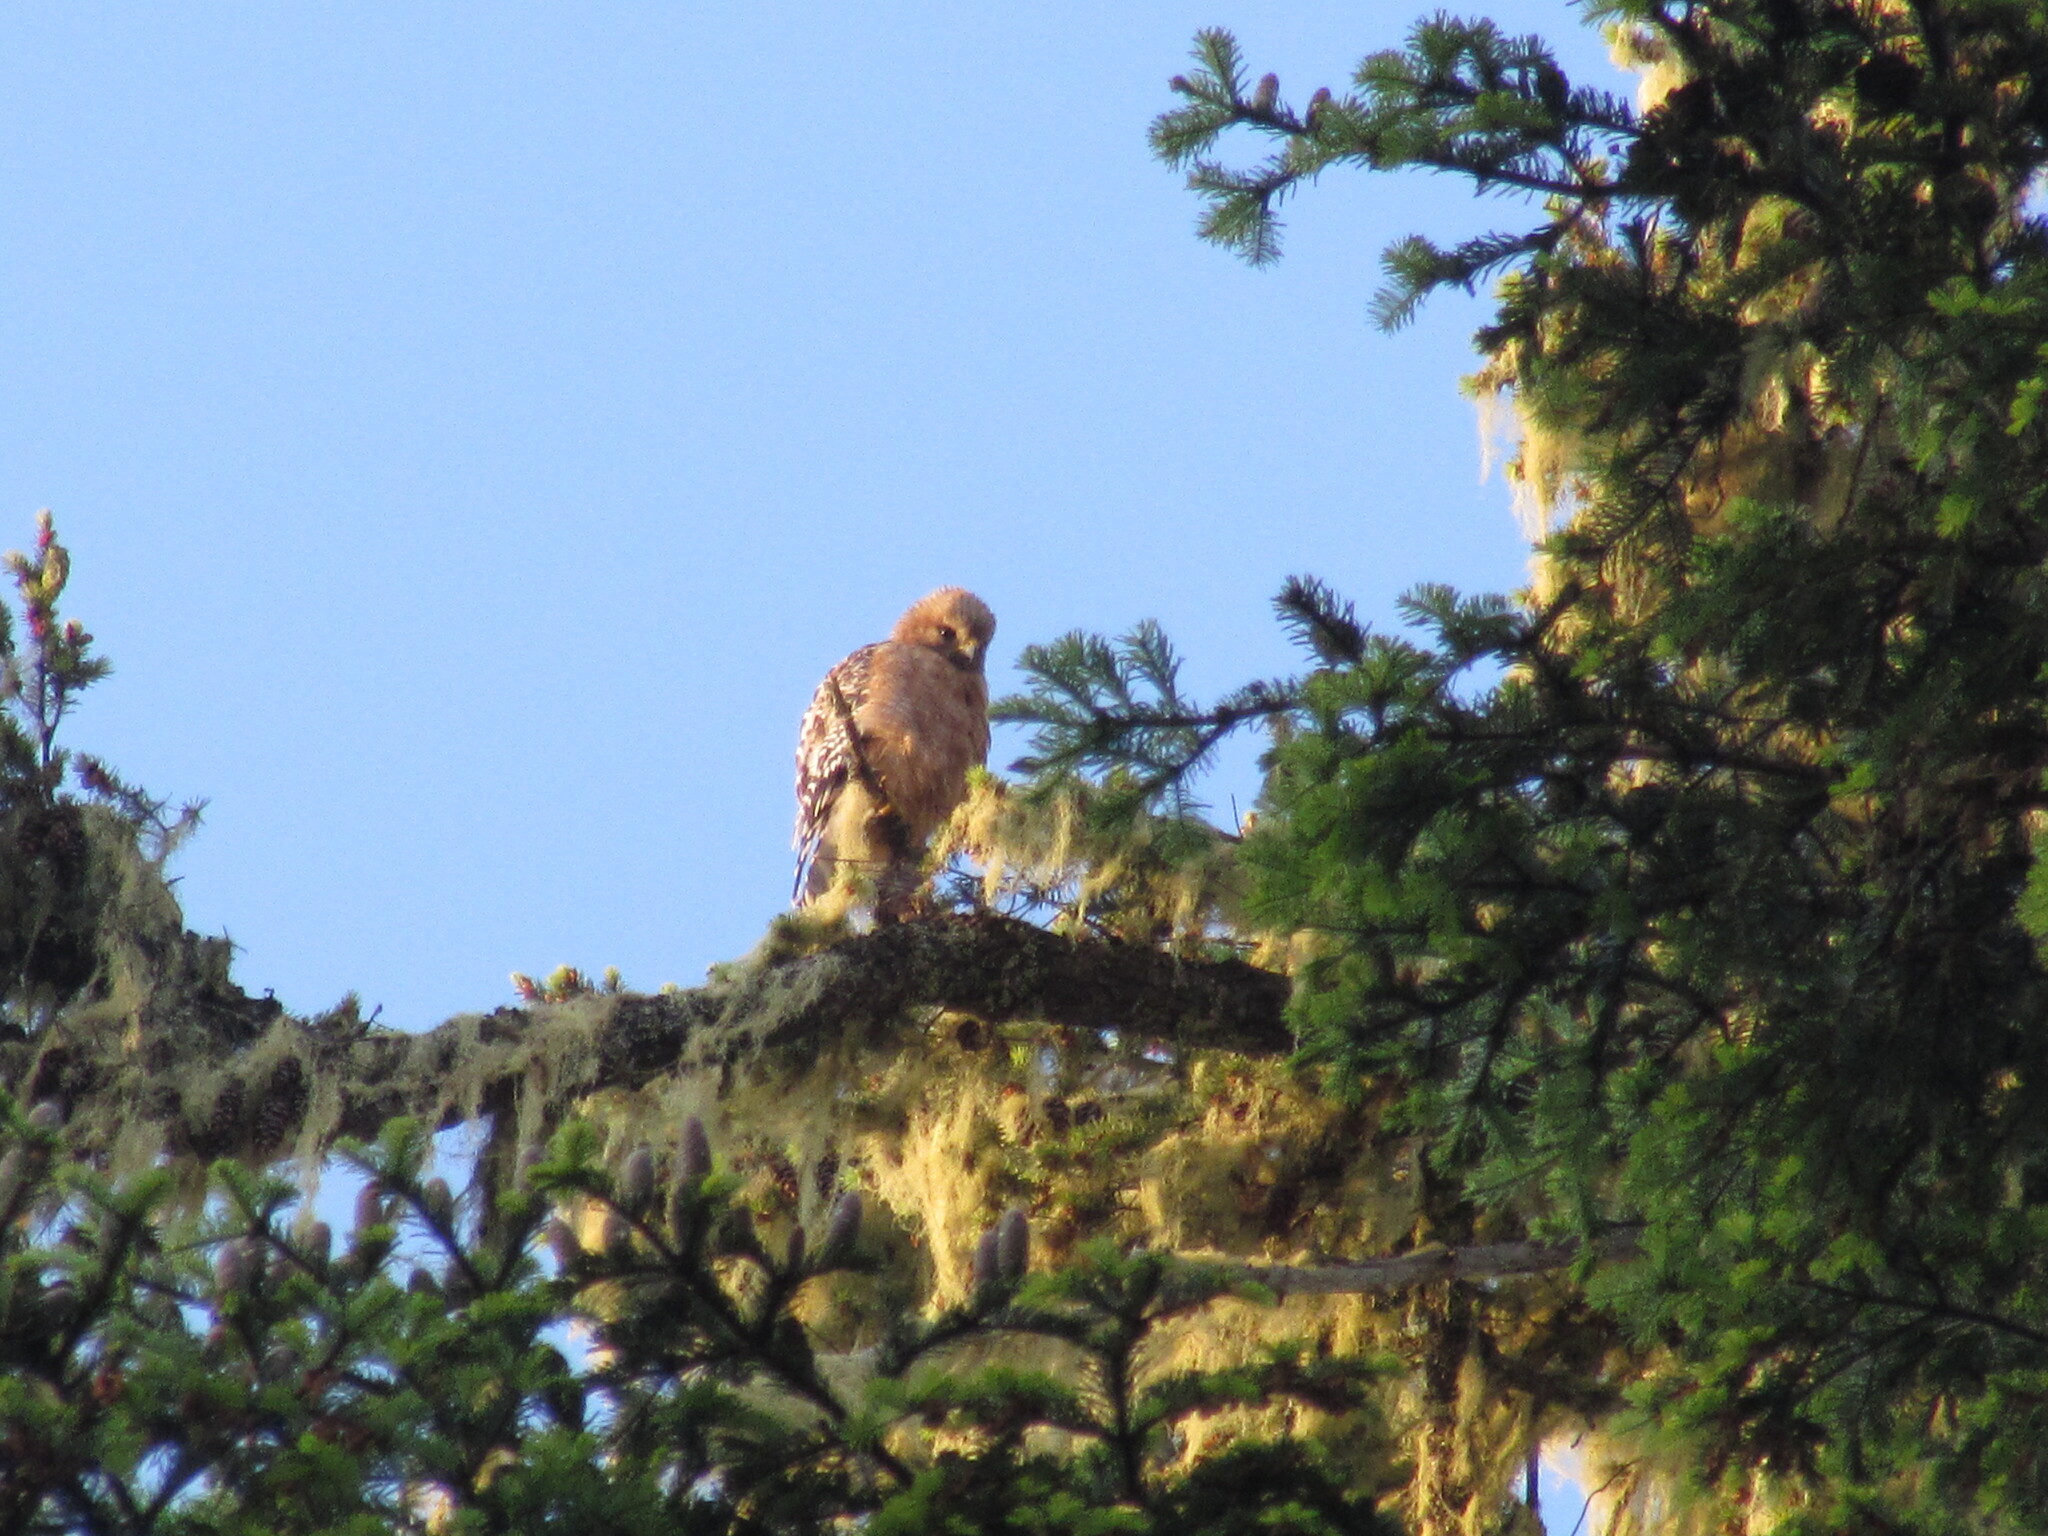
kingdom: Animalia
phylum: Chordata
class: Aves
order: Accipitriformes
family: Accipitridae
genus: Buteo
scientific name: Buteo lineatus
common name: Red-shouldered hawk
